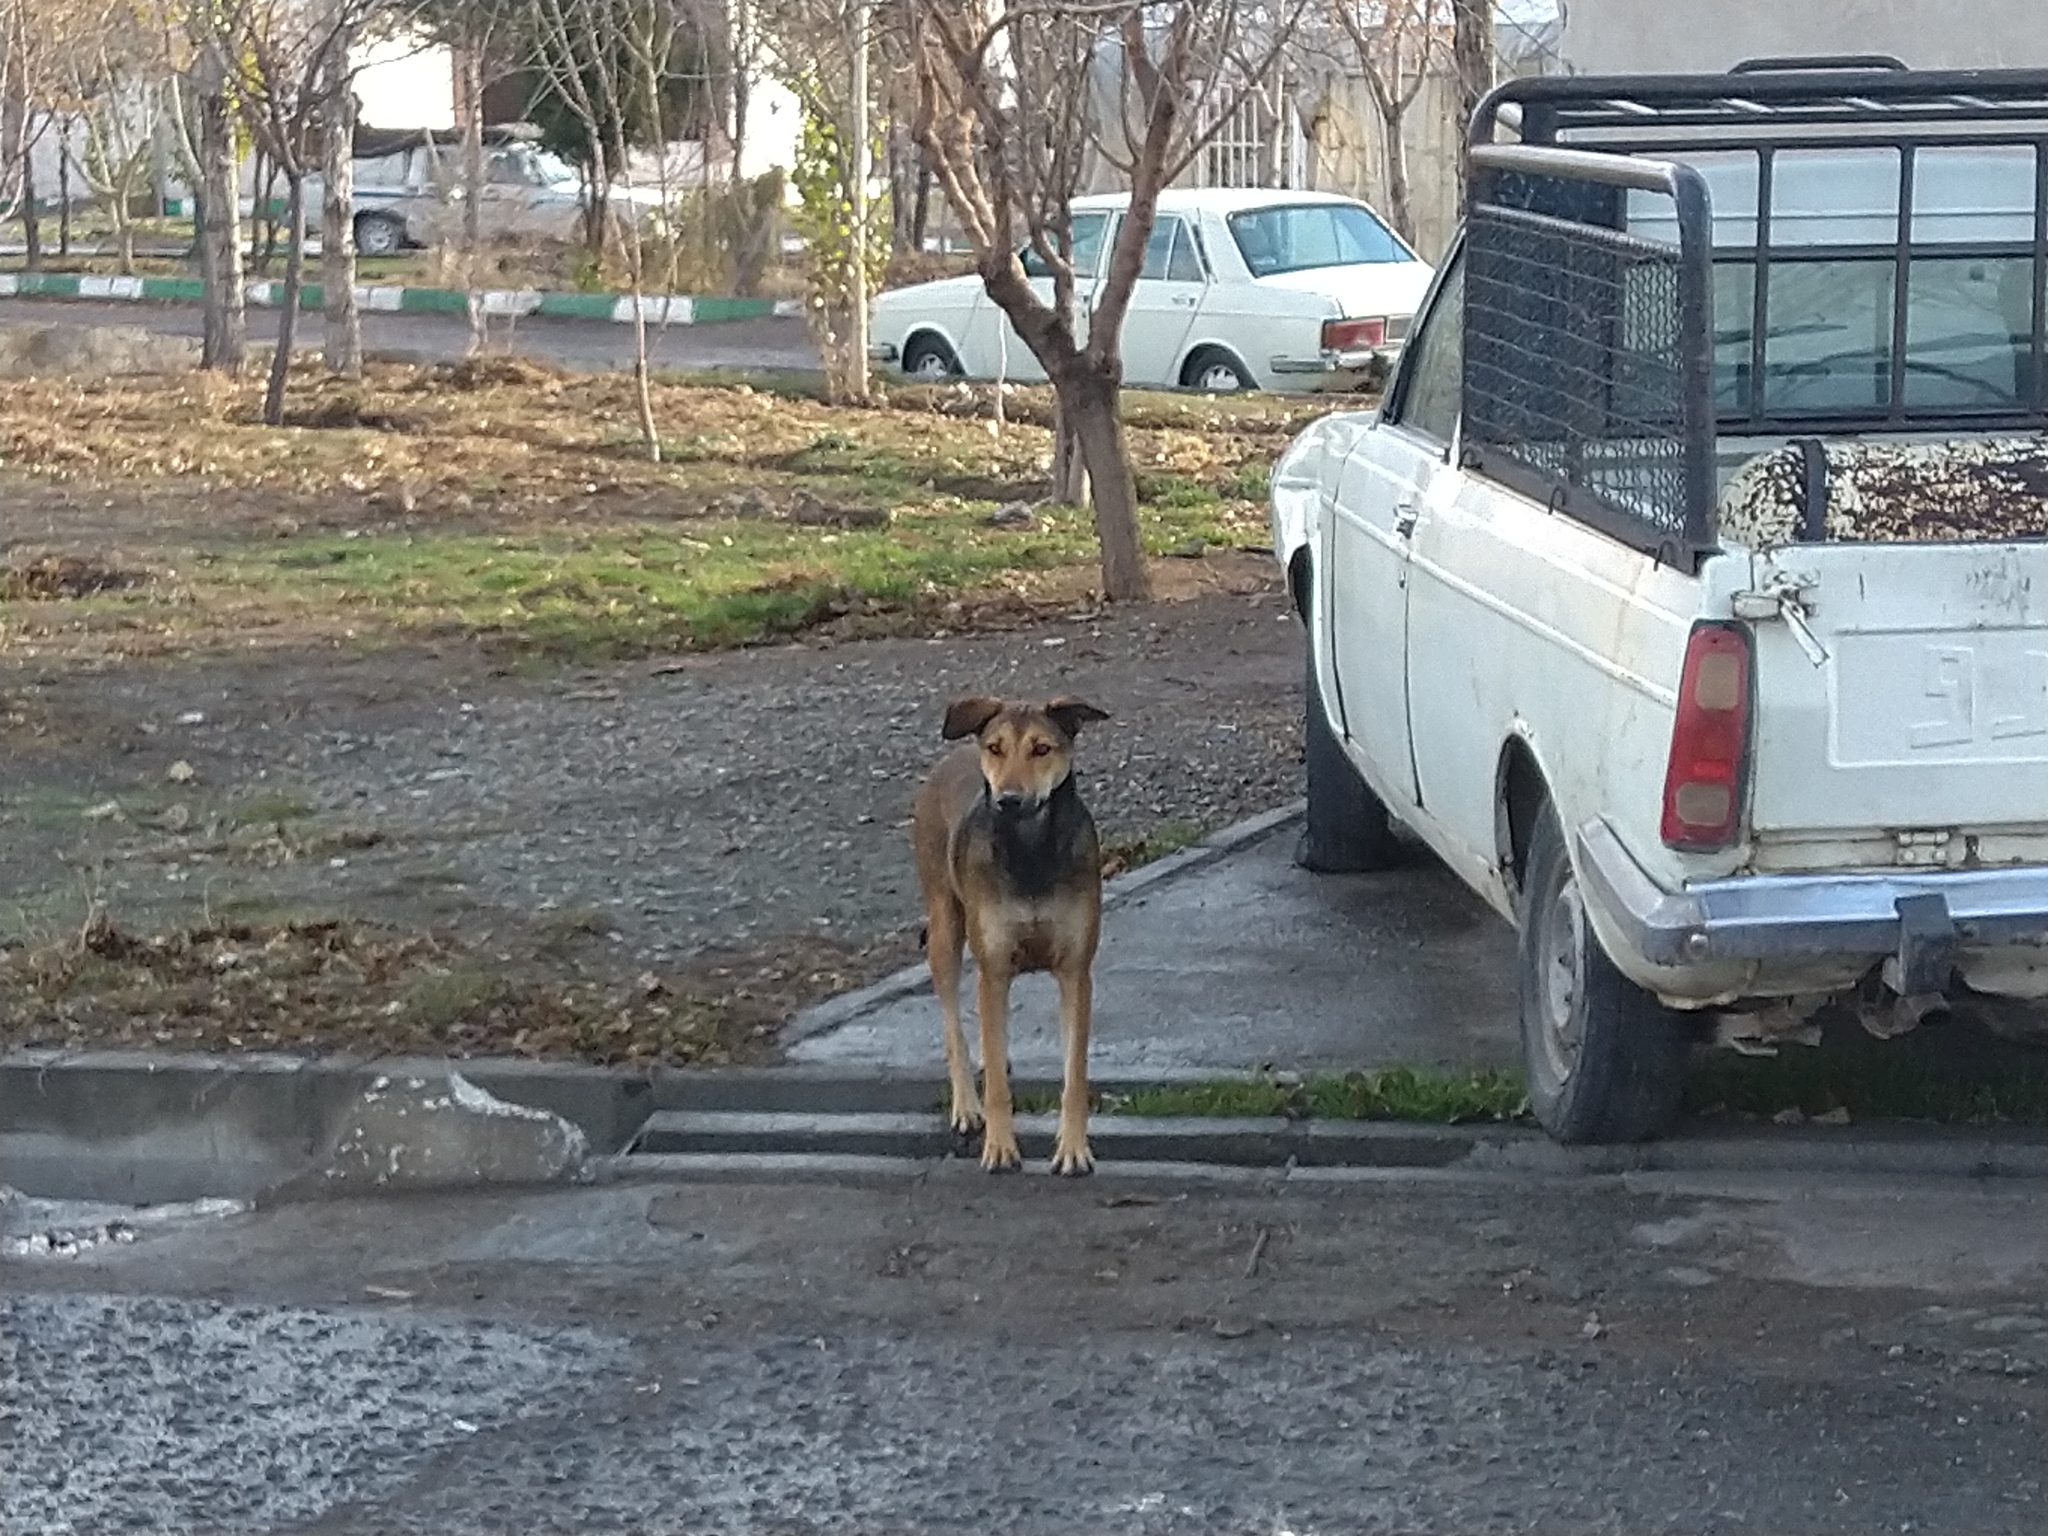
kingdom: Animalia
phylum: Chordata
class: Mammalia
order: Carnivora
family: Canidae
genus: Canis
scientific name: Canis lupus
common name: Gray wolf
